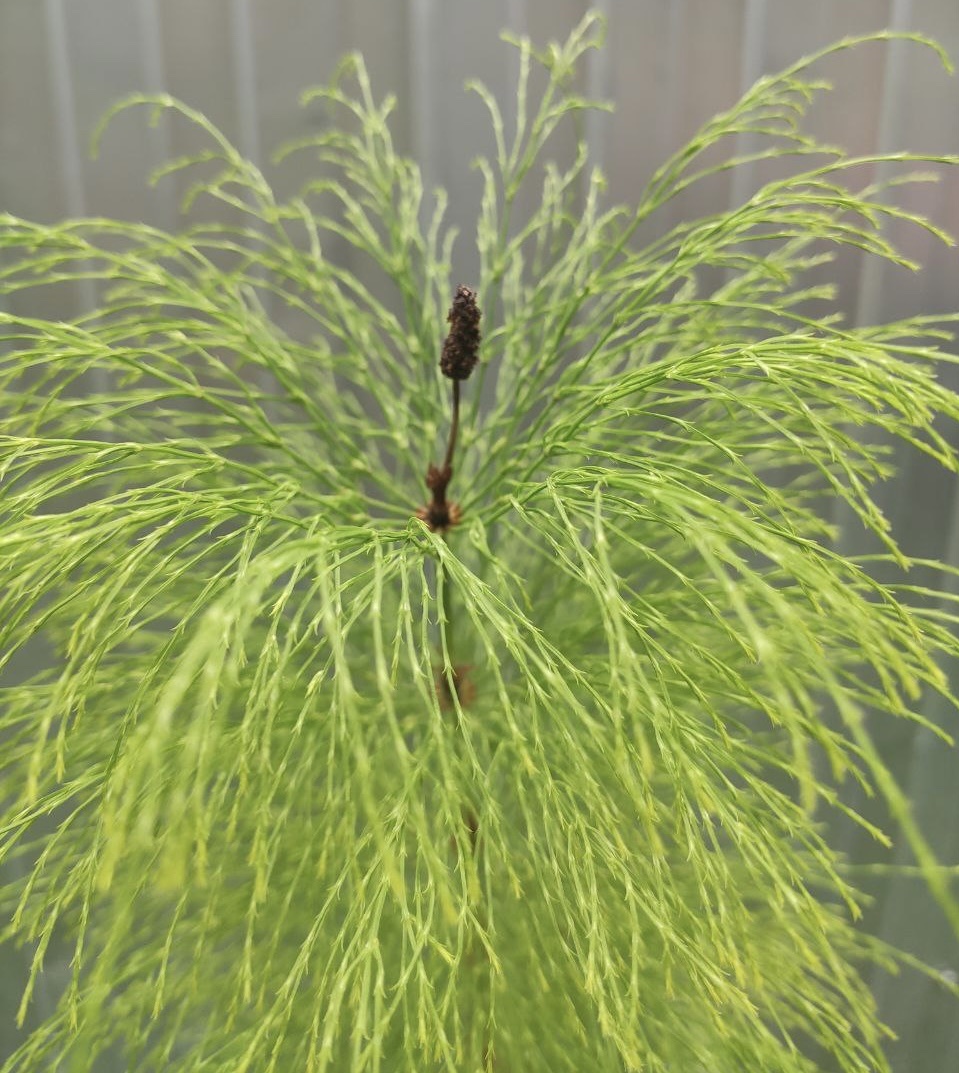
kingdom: Plantae
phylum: Tracheophyta
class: Polypodiopsida
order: Equisetales
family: Equisetaceae
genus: Equisetum
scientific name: Equisetum sylvaticum
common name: Wood horsetail
